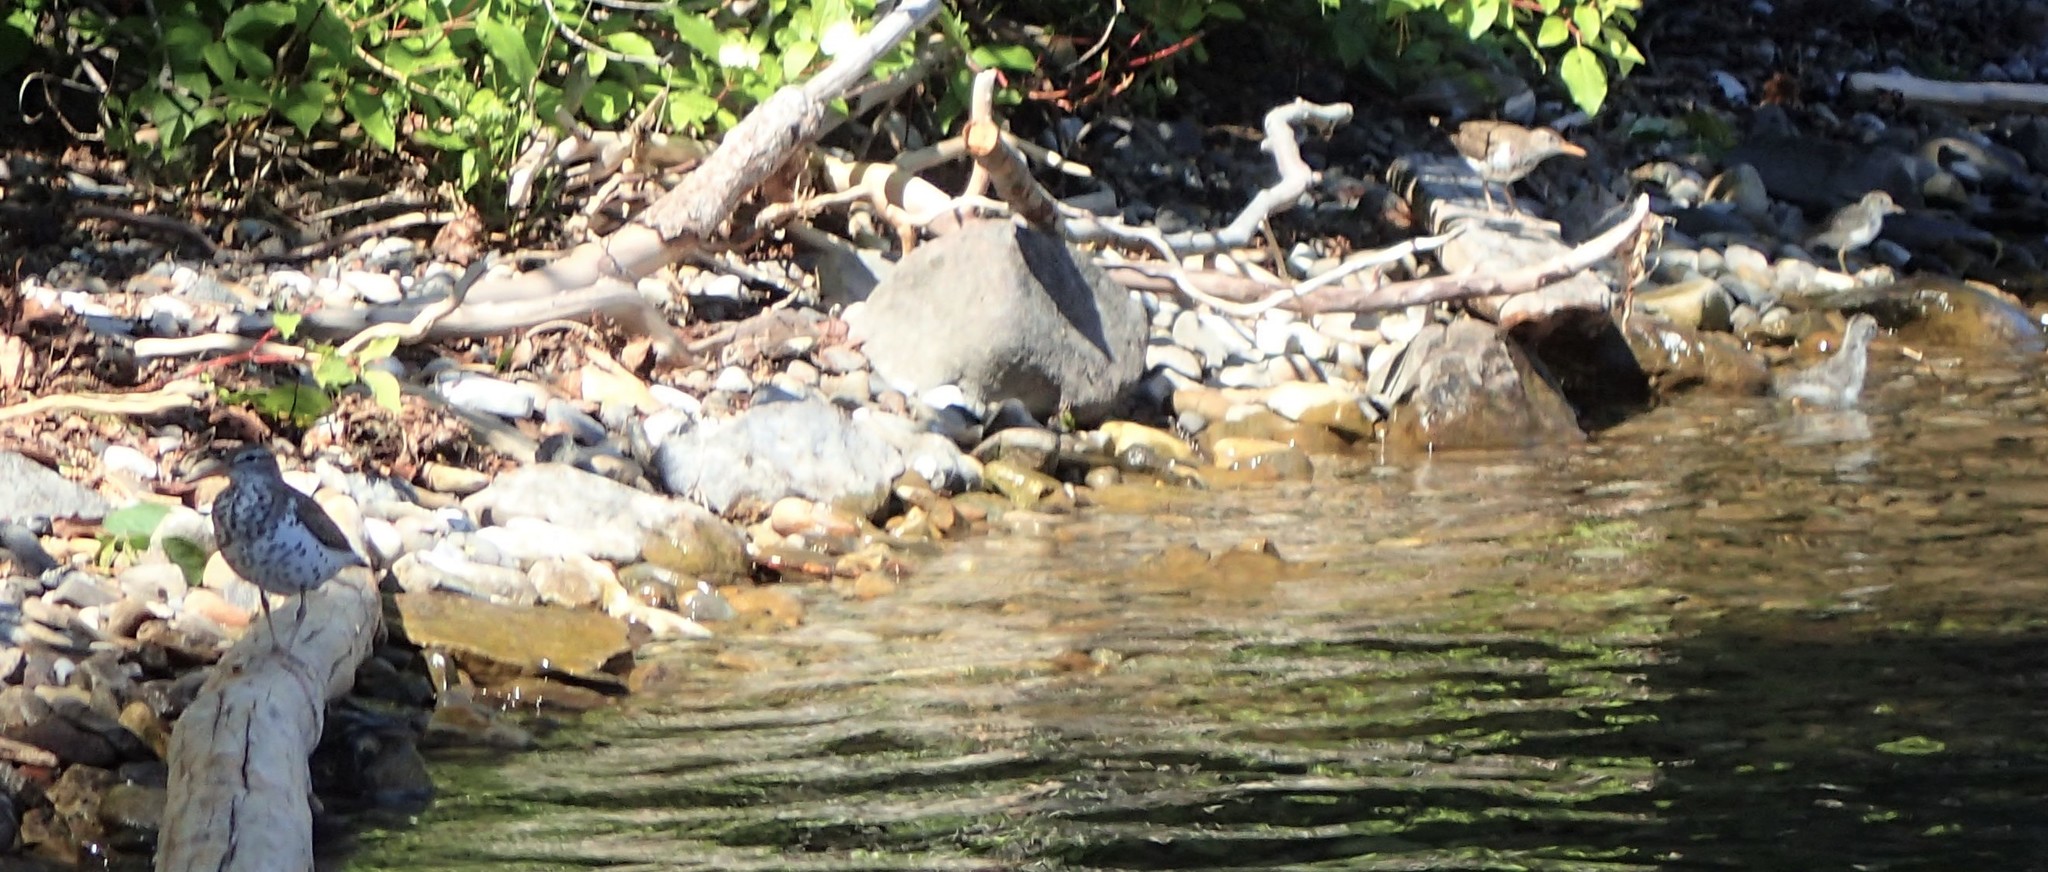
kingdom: Animalia
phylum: Chordata
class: Aves
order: Charadriiformes
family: Scolopacidae
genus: Actitis
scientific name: Actitis macularius
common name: Spotted sandpiper
